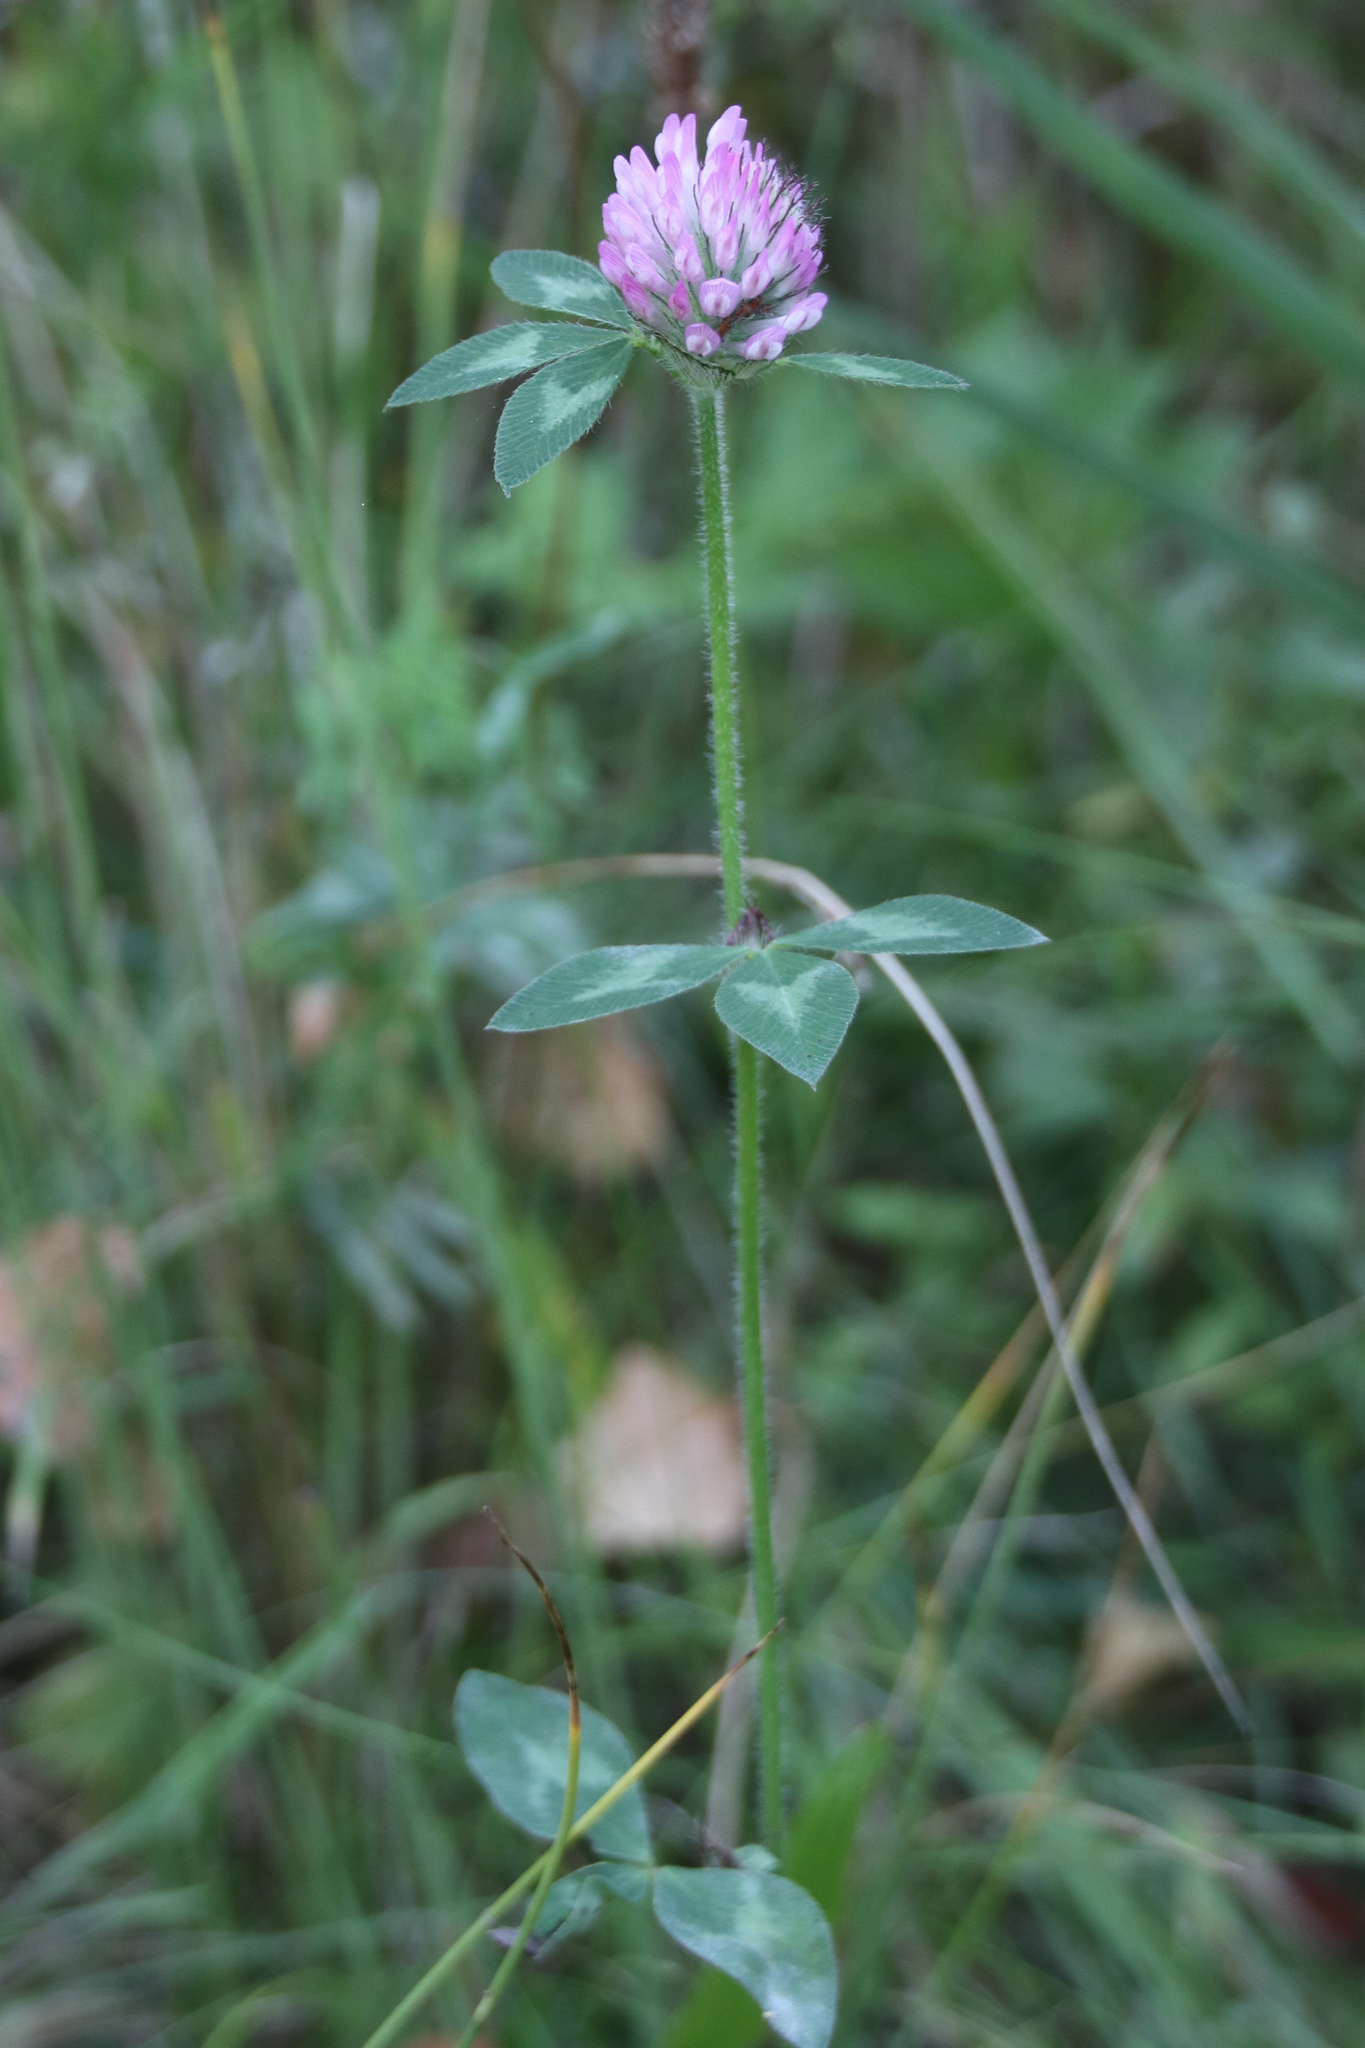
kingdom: Plantae
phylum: Tracheophyta
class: Magnoliopsida
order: Fabales
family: Fabaceae
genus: Trifolium
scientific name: Trifolium pratense
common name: Red clover
